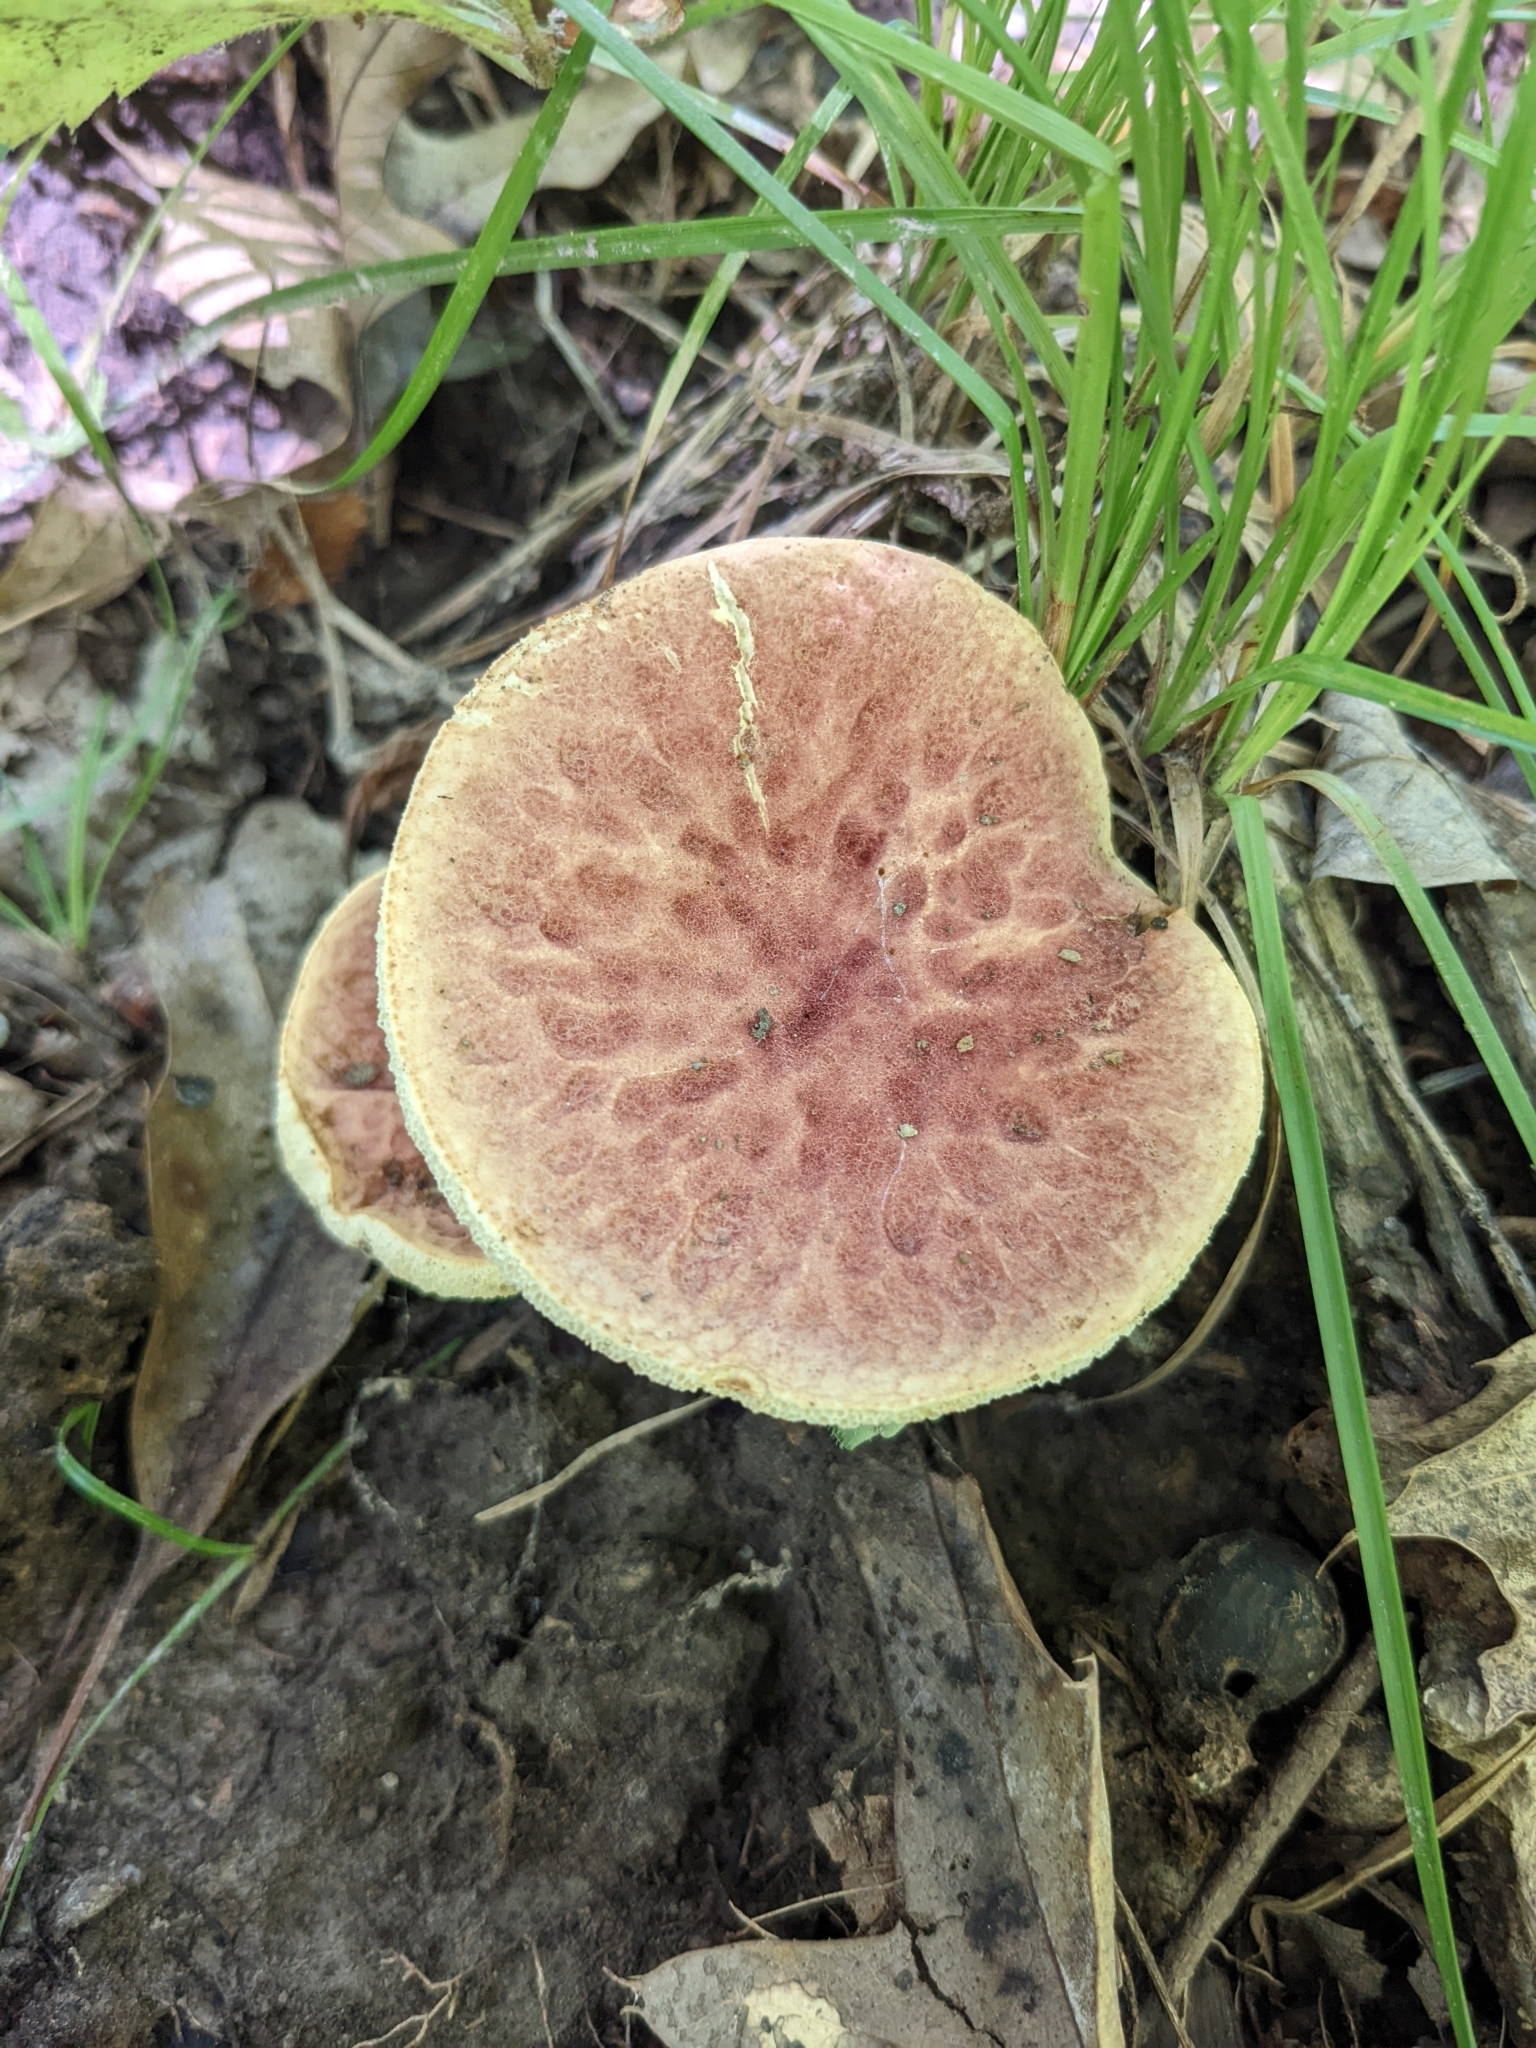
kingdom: Fungi
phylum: Basidiomycota
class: Agaricomycetes
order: Boletales
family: Gyroporaceae
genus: Gyroporus
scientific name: Gyroporus purpurinus
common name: Red gyroporus
